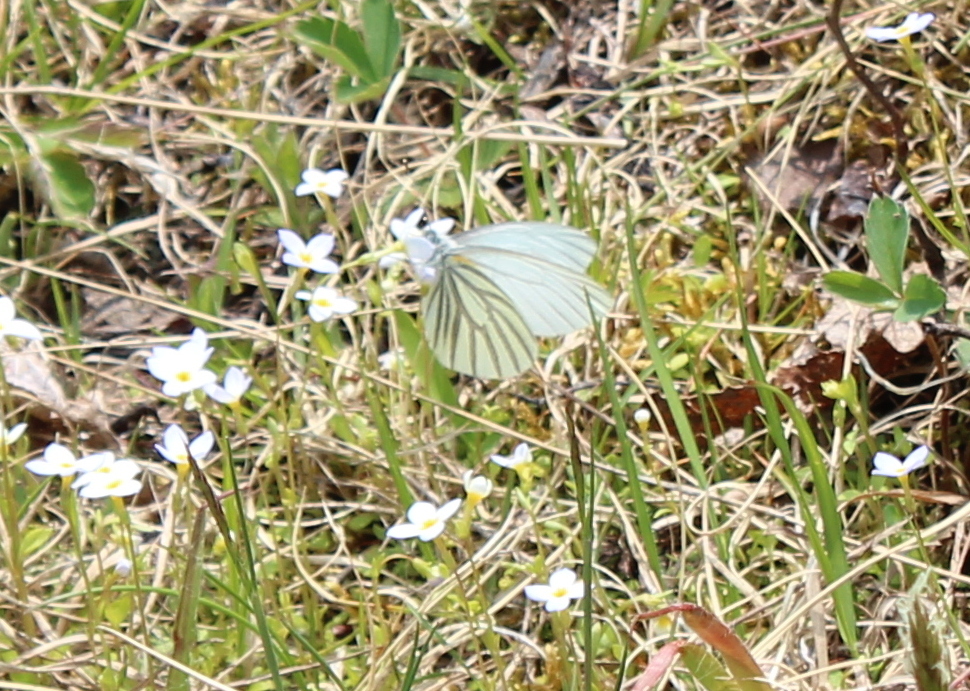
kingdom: Animalia
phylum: Arthropoda
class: Insecta
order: Lepidoptera
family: Pieridae
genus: Pieris
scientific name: Pieris oleracea
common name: Mustard white
